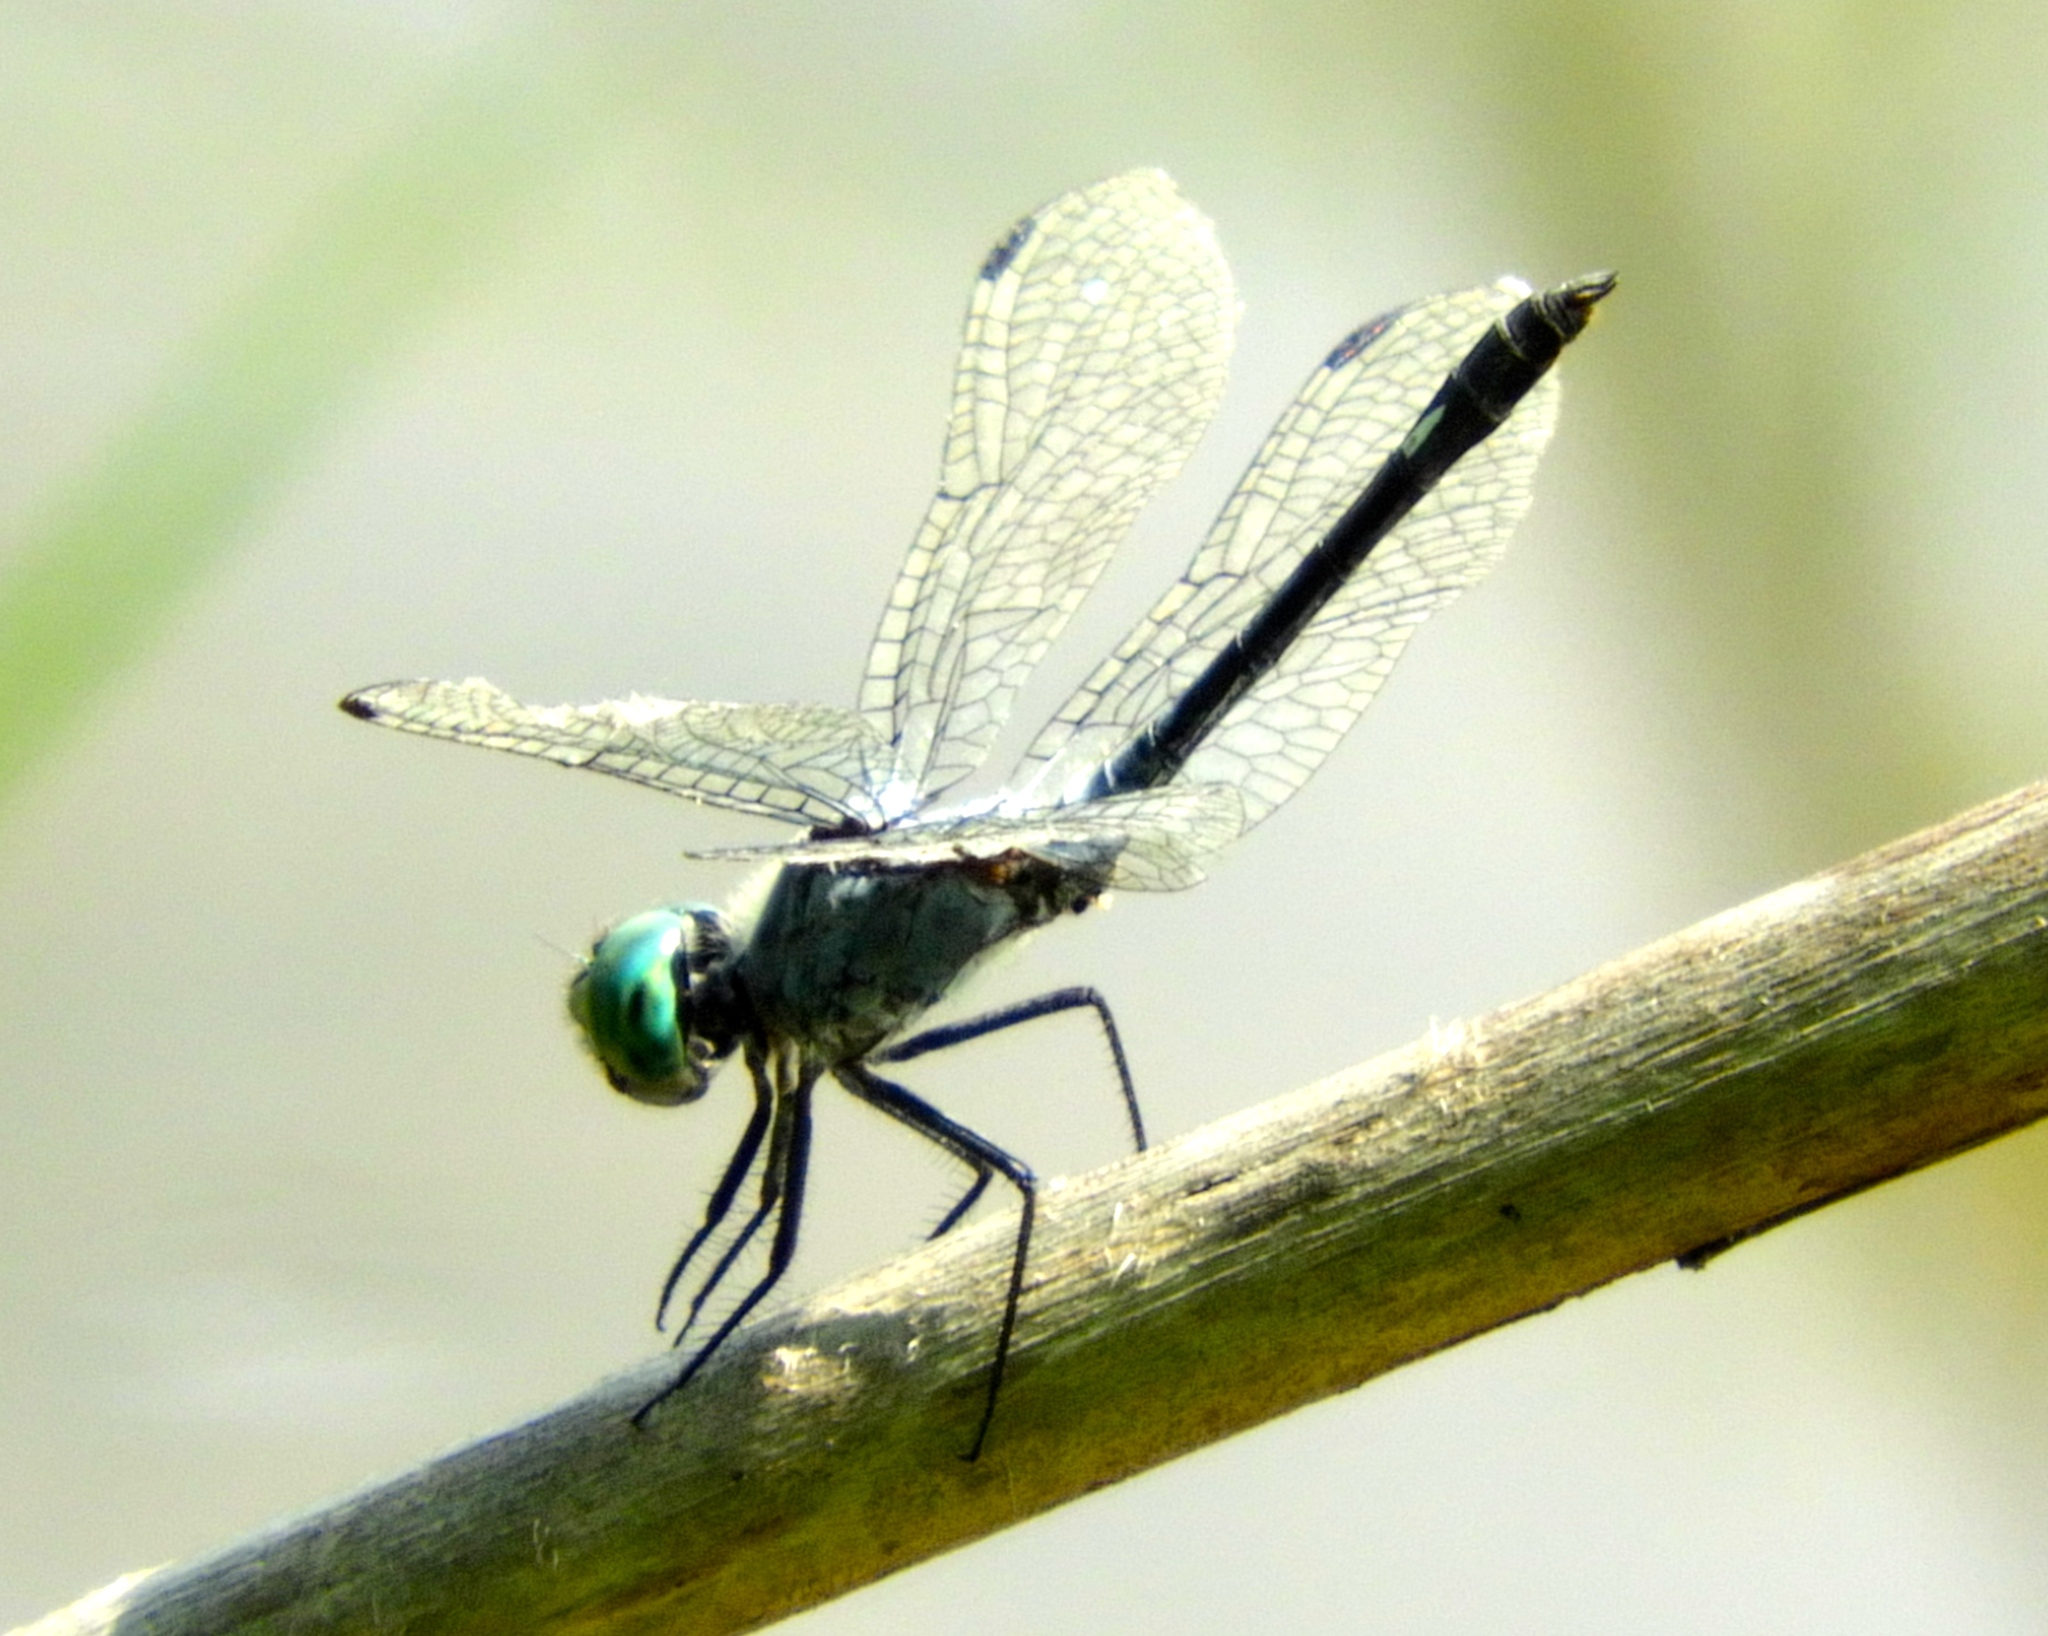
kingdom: Animalia
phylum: Arthropoda
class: Insecta
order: Odonata
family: Libellulidae
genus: Micrathyria
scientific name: Micrathyria aequalis
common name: Spot-tailed dasher
